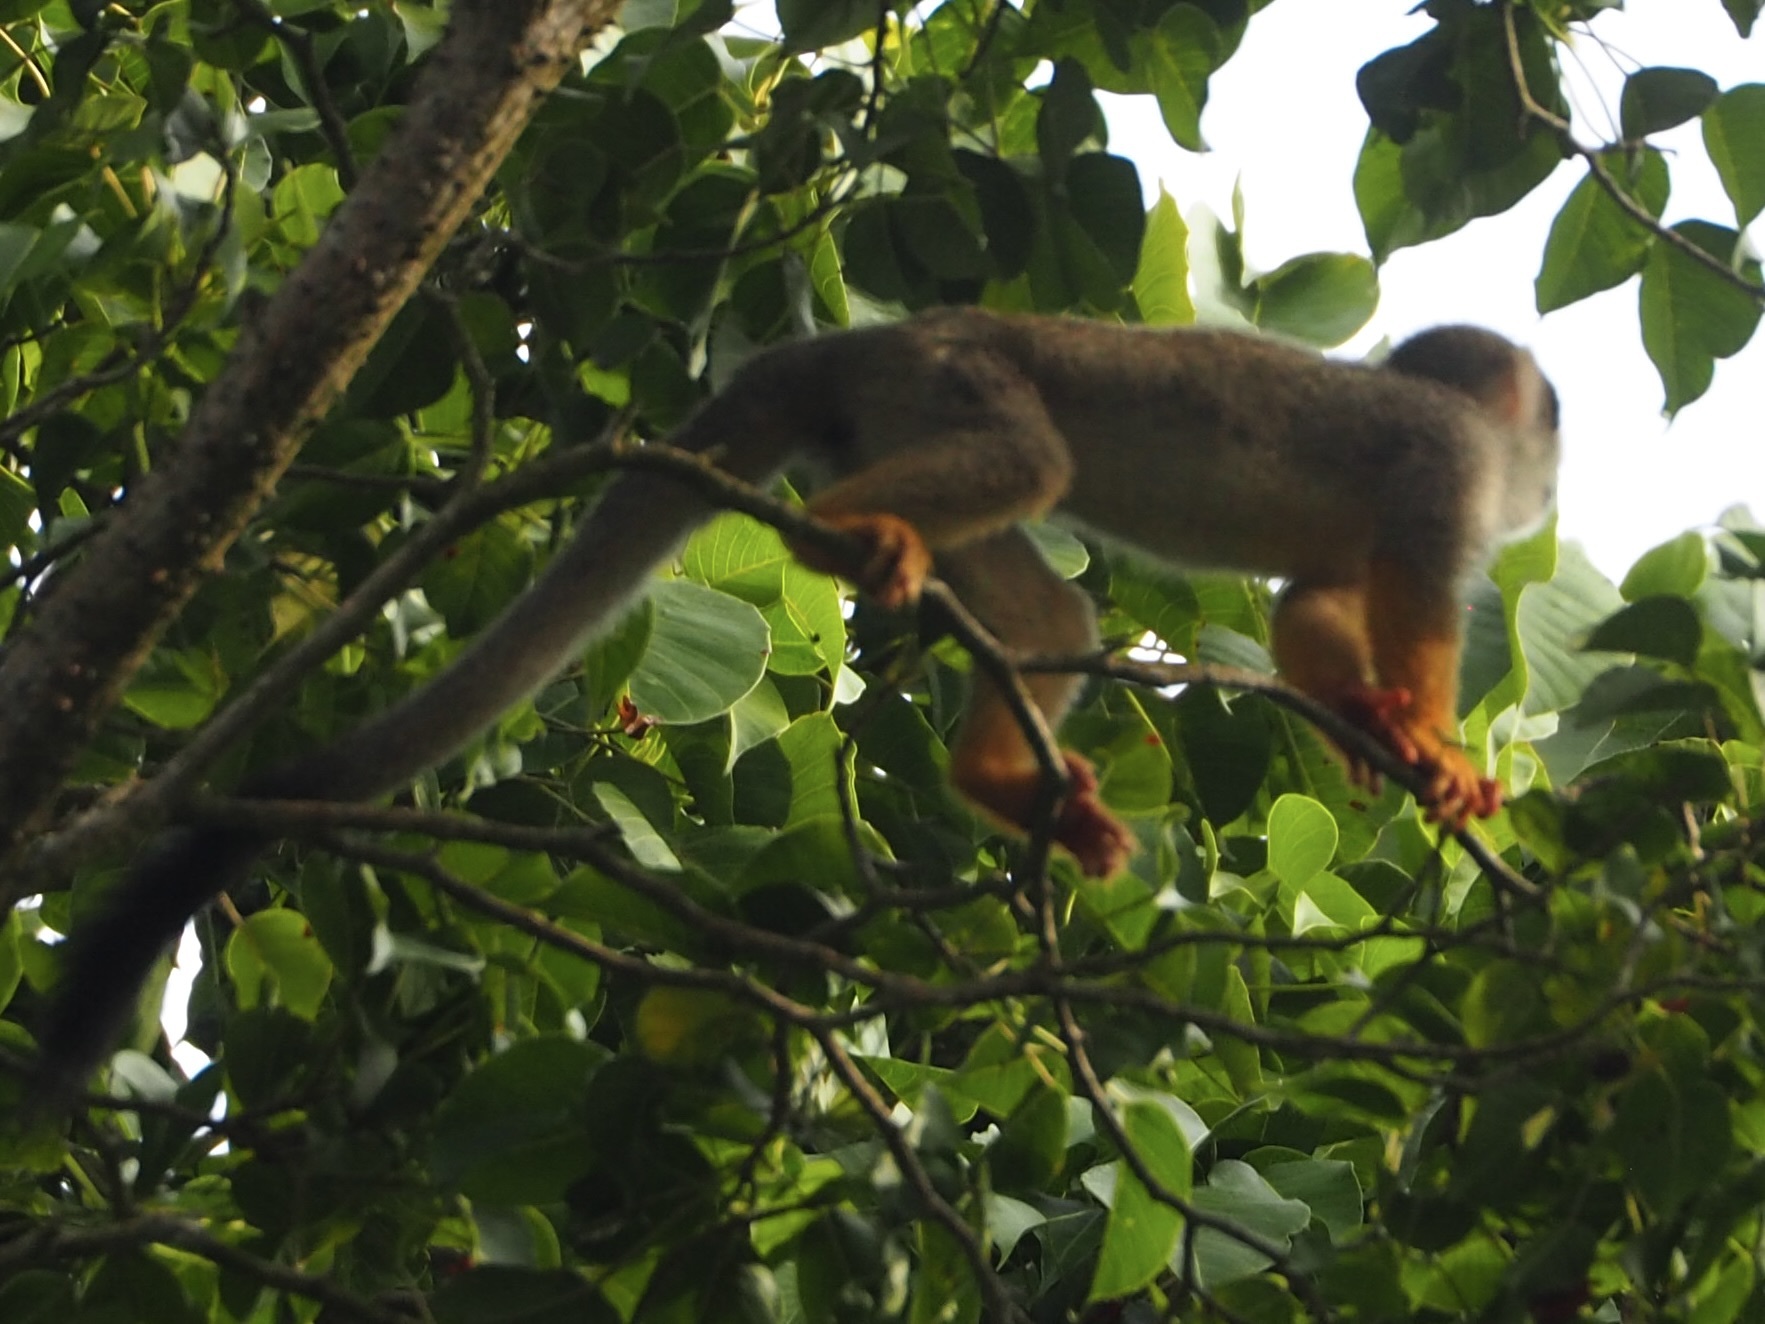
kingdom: Animalia
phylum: Chordata
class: Mammalia
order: Primates
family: Cebidae
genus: Saimiri
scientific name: Saimiri sciureus
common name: Common squirrel monkey
